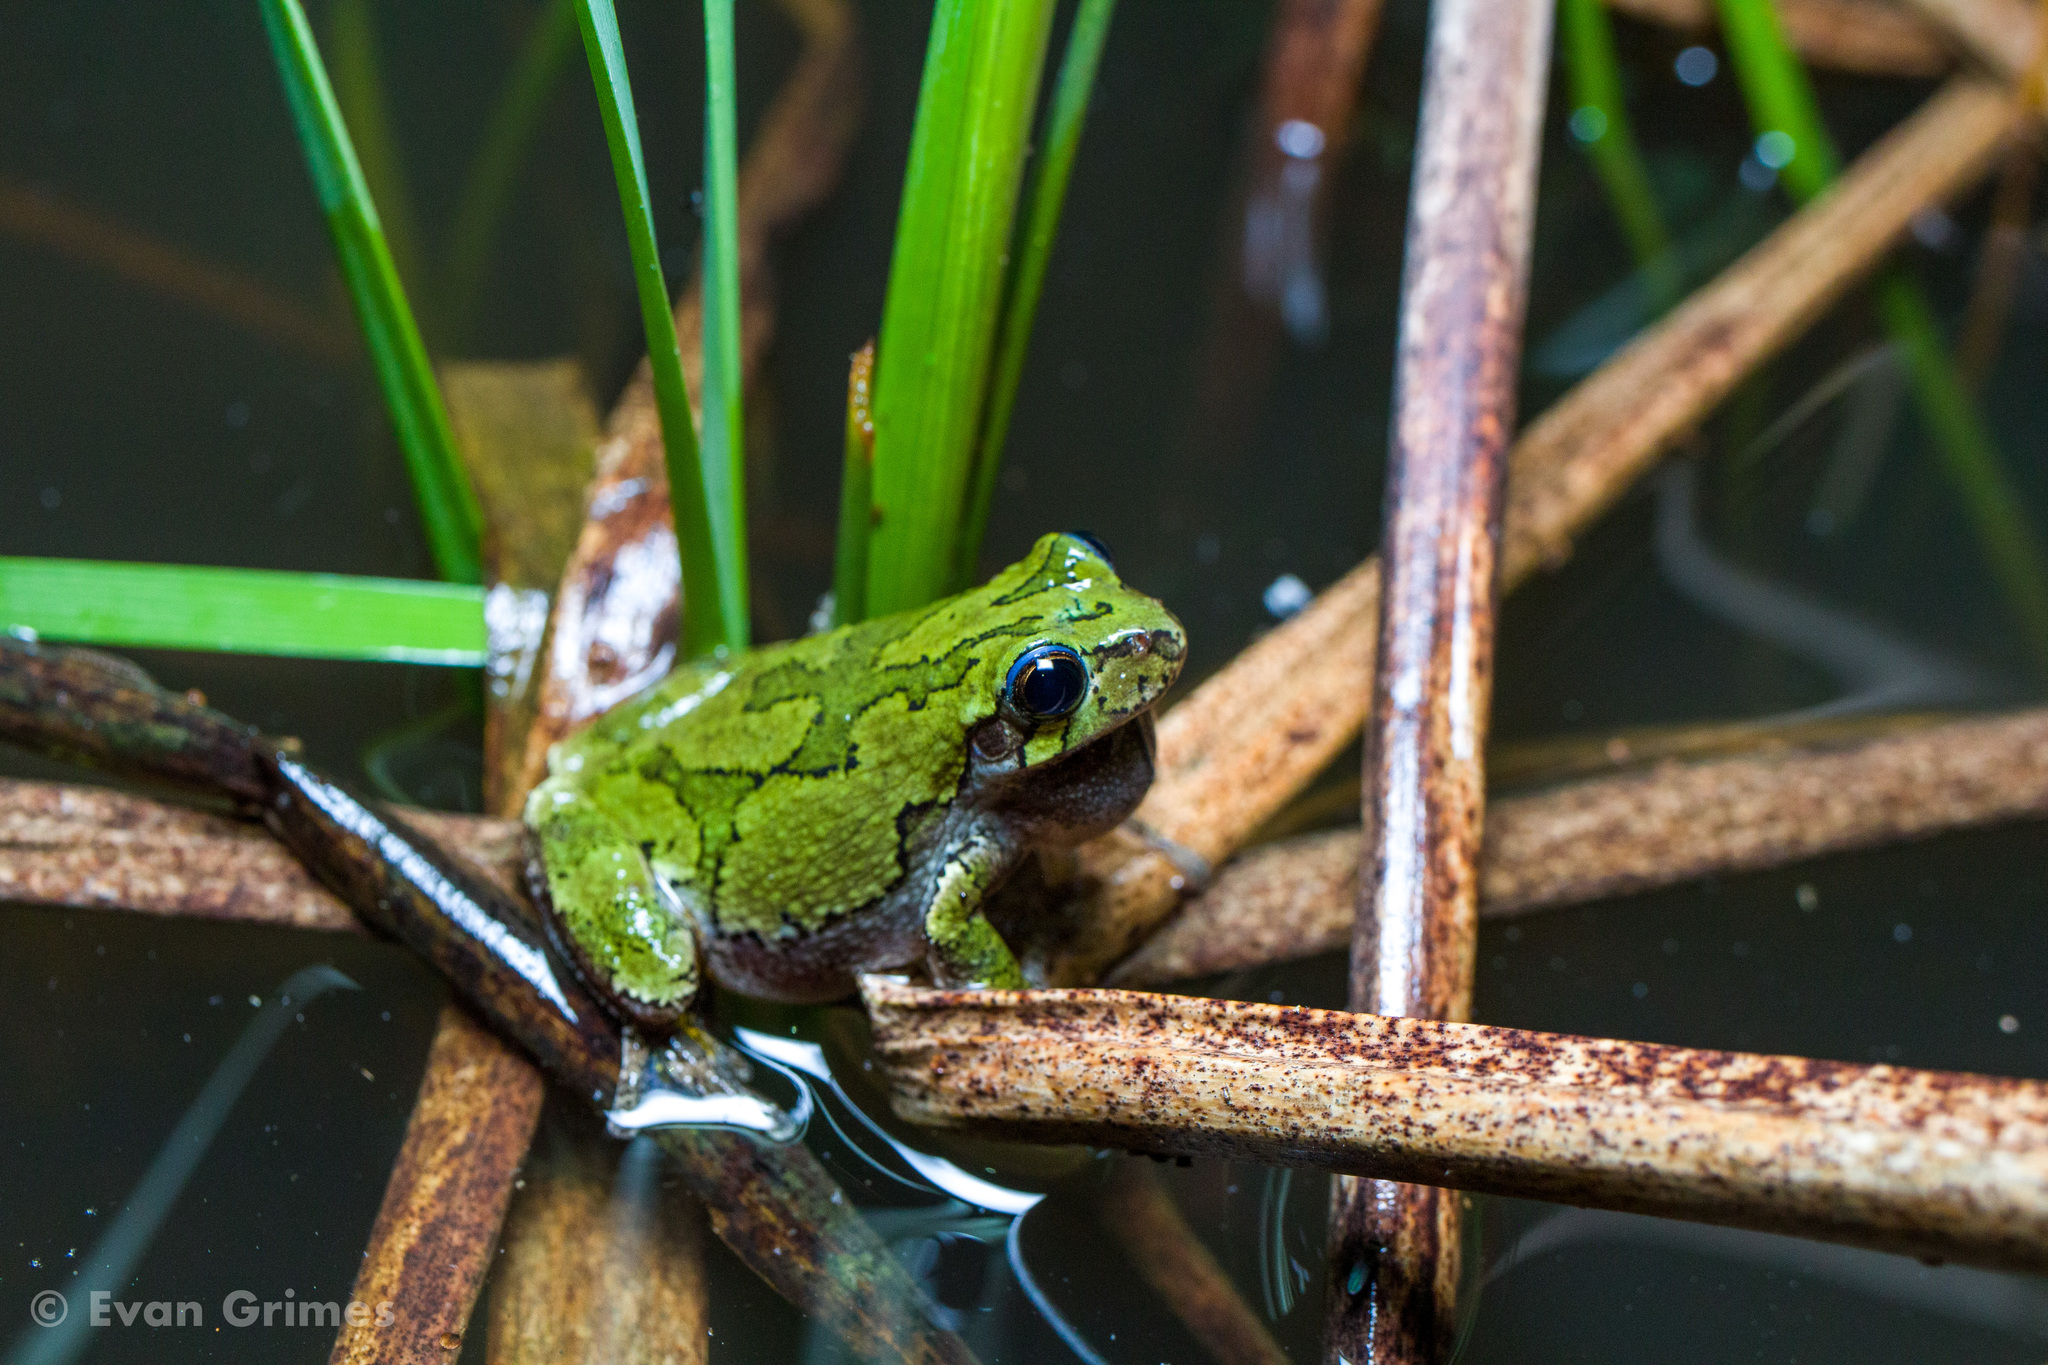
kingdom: Animalia
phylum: Chordata
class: Amphibia
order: Anura
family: Hylidae
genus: Dryophytes
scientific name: Dryophytes versicolor
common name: Gray treefrog
